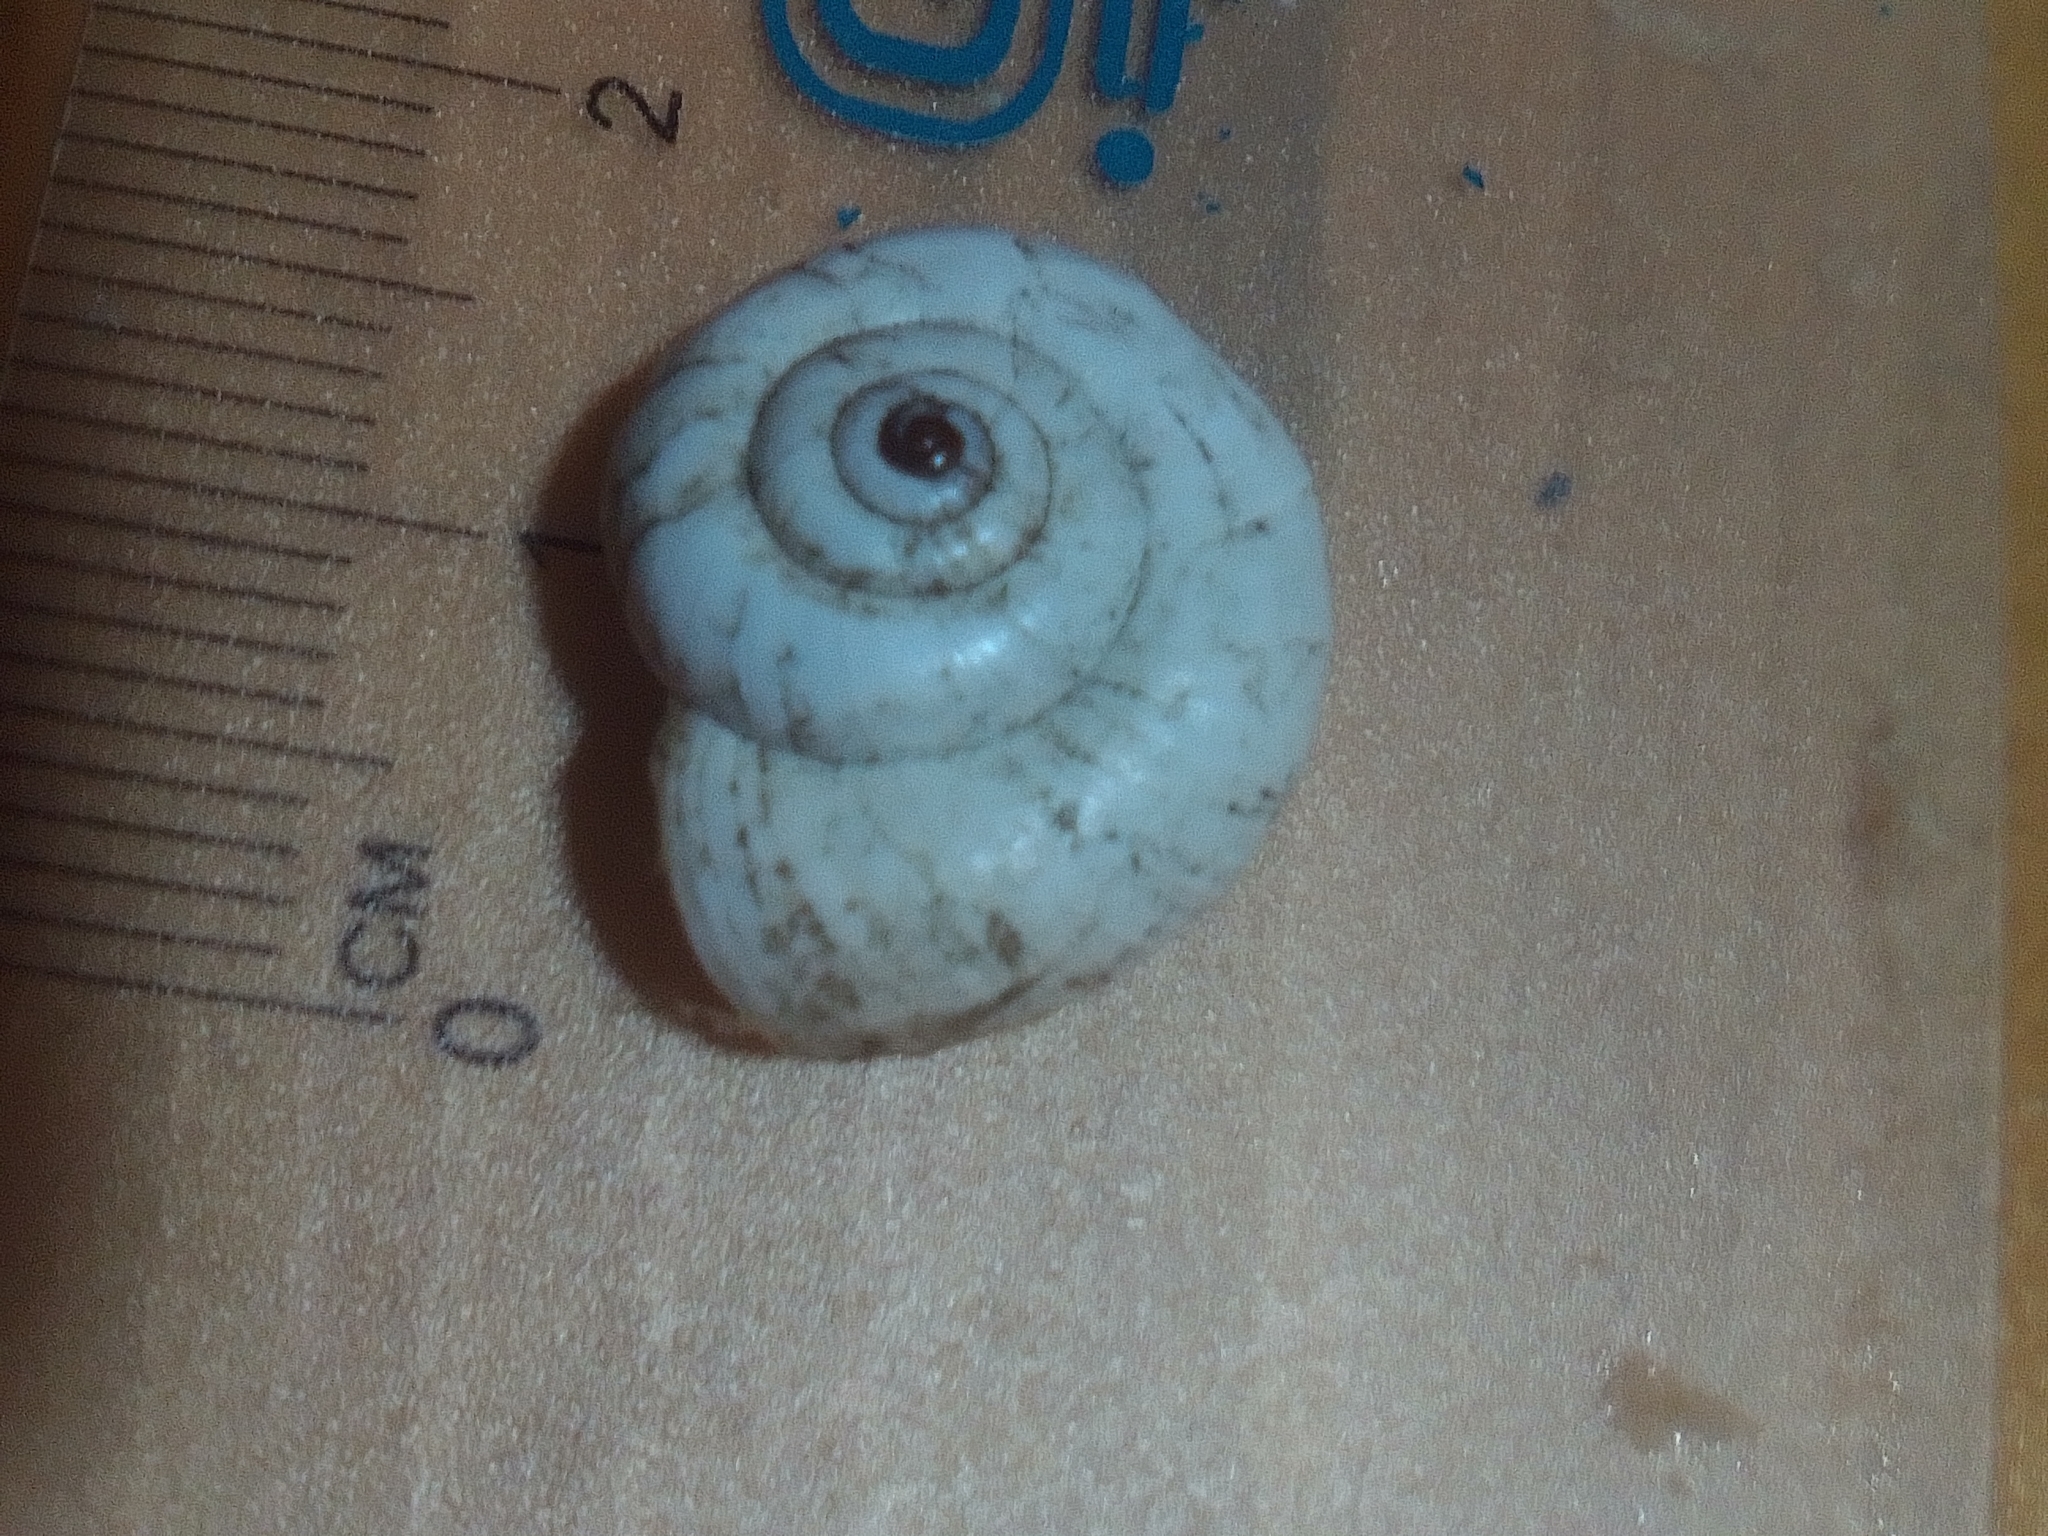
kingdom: Animalia
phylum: Mollusca
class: Gastropoda
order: Stylommatophora
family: Geomitridae
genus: Xeropicta
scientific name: Xeropicta derbentina
